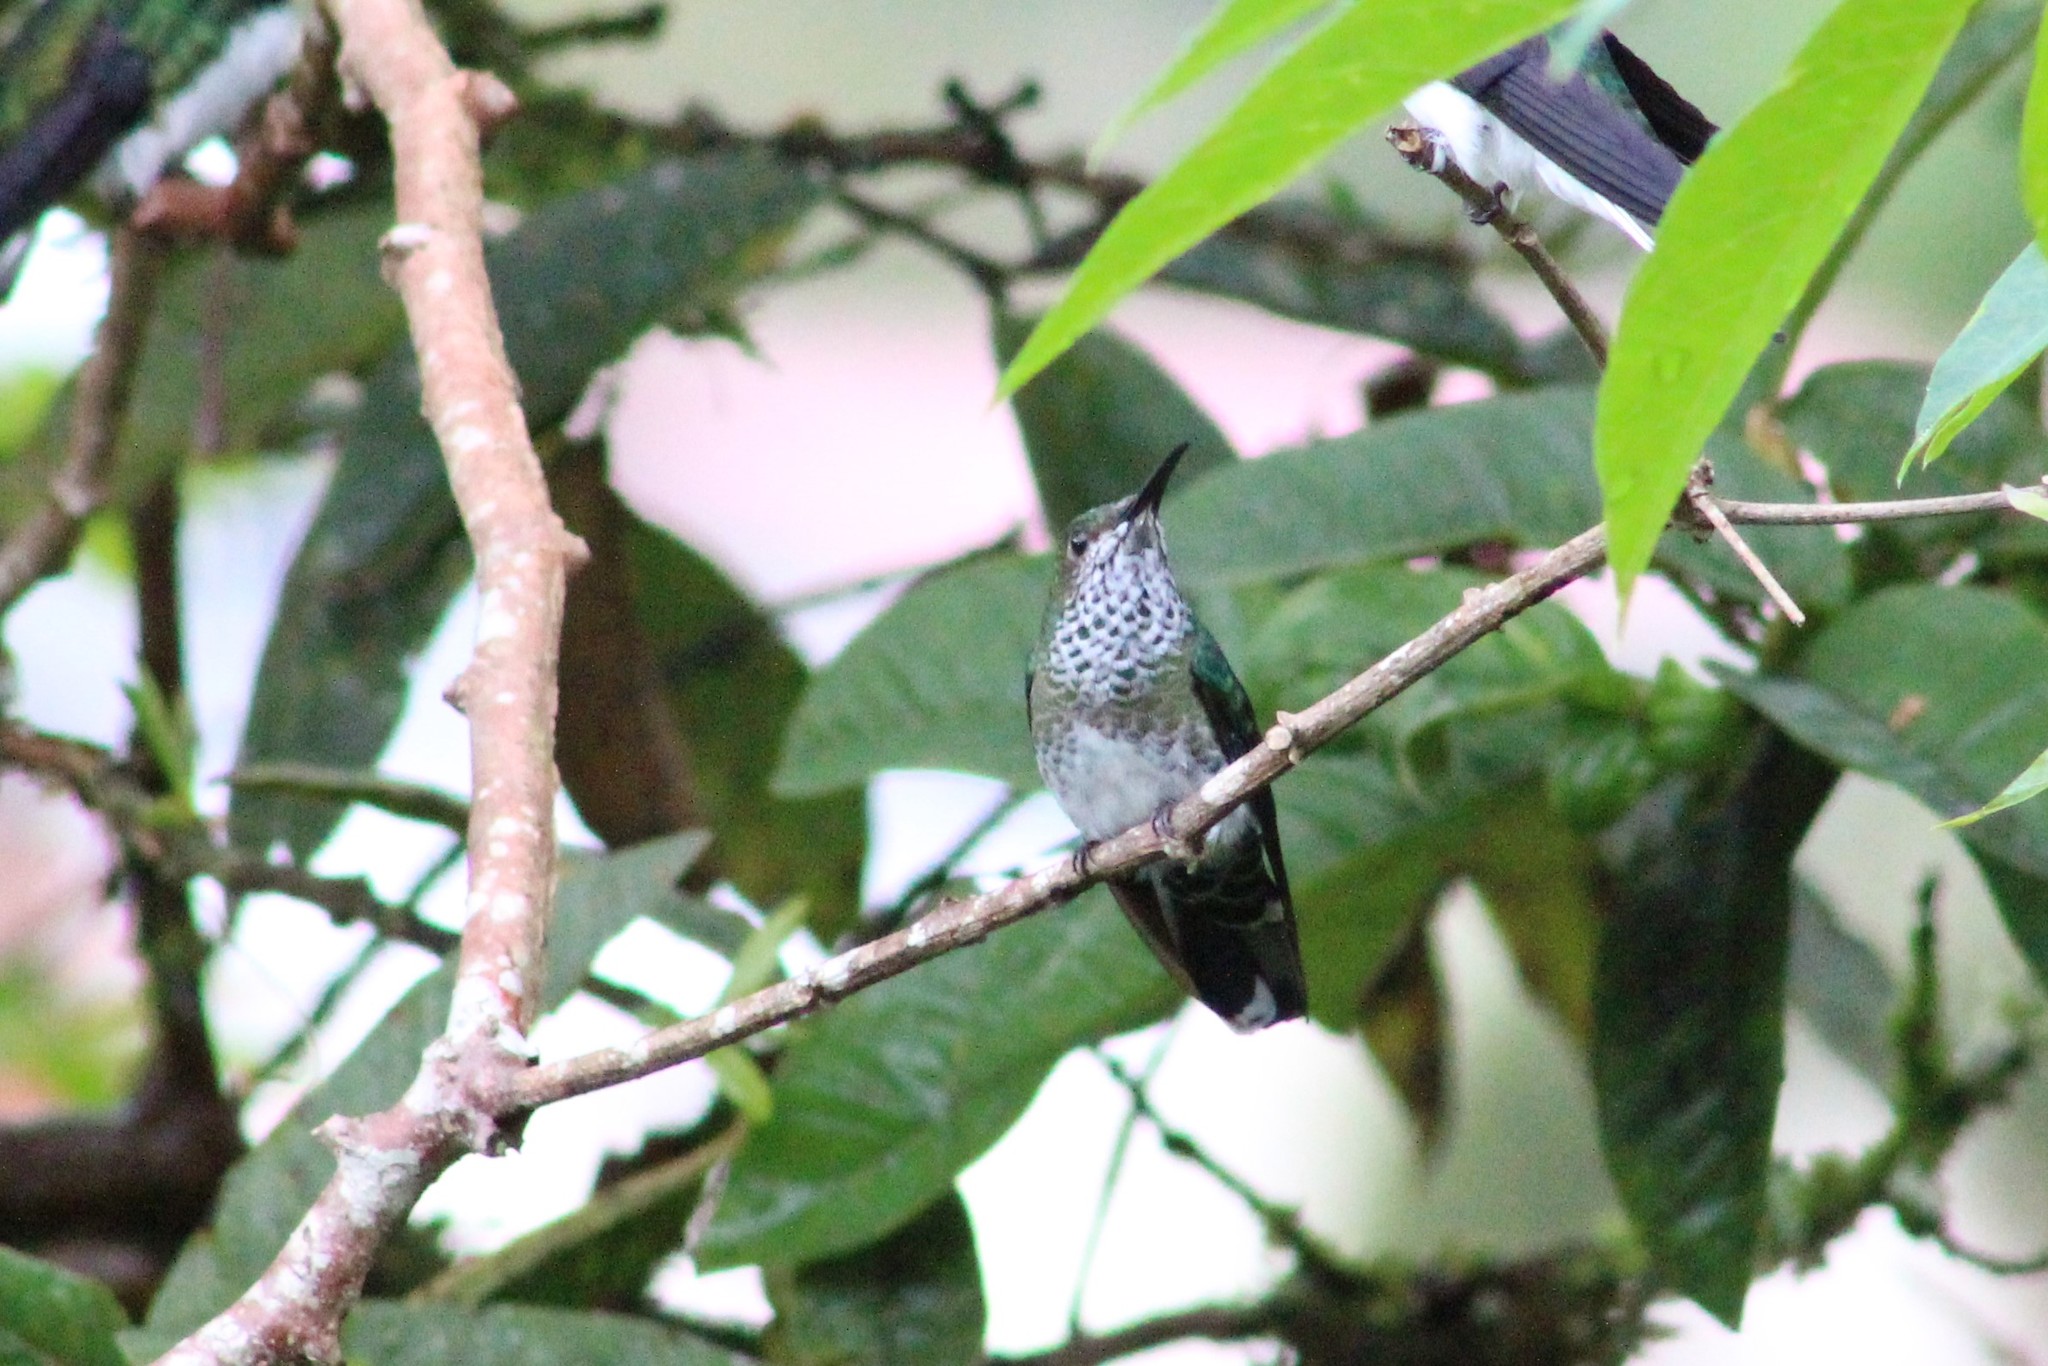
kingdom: Animalia
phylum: Chordata
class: Aves
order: Apodiformes
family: Trochilidae
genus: Florisuga
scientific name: Florisuga mellivora
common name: White-necked jacobin
